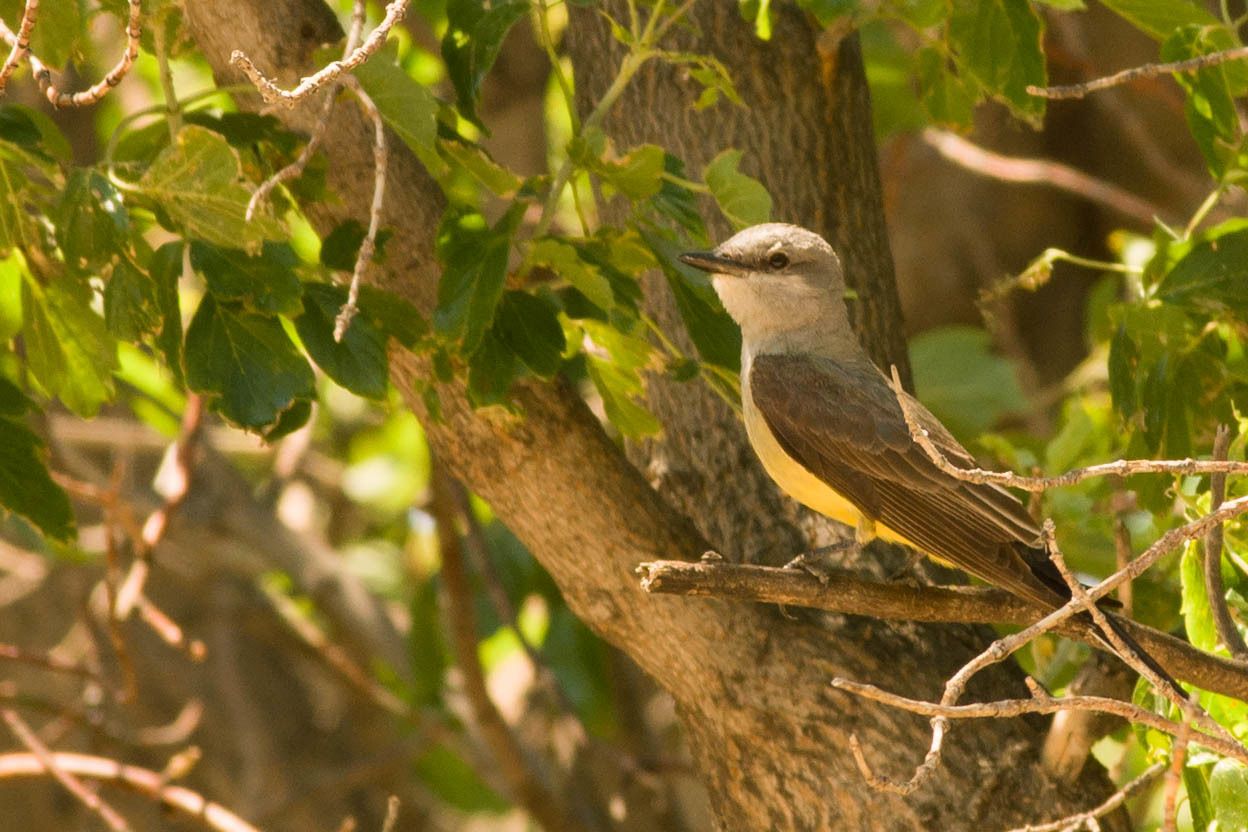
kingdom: Animalia
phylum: Chordata
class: Aves
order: Passeriformes
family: Tyrannidae
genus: Tyrannus
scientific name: Tyrannus verticalis
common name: Western kingbird
